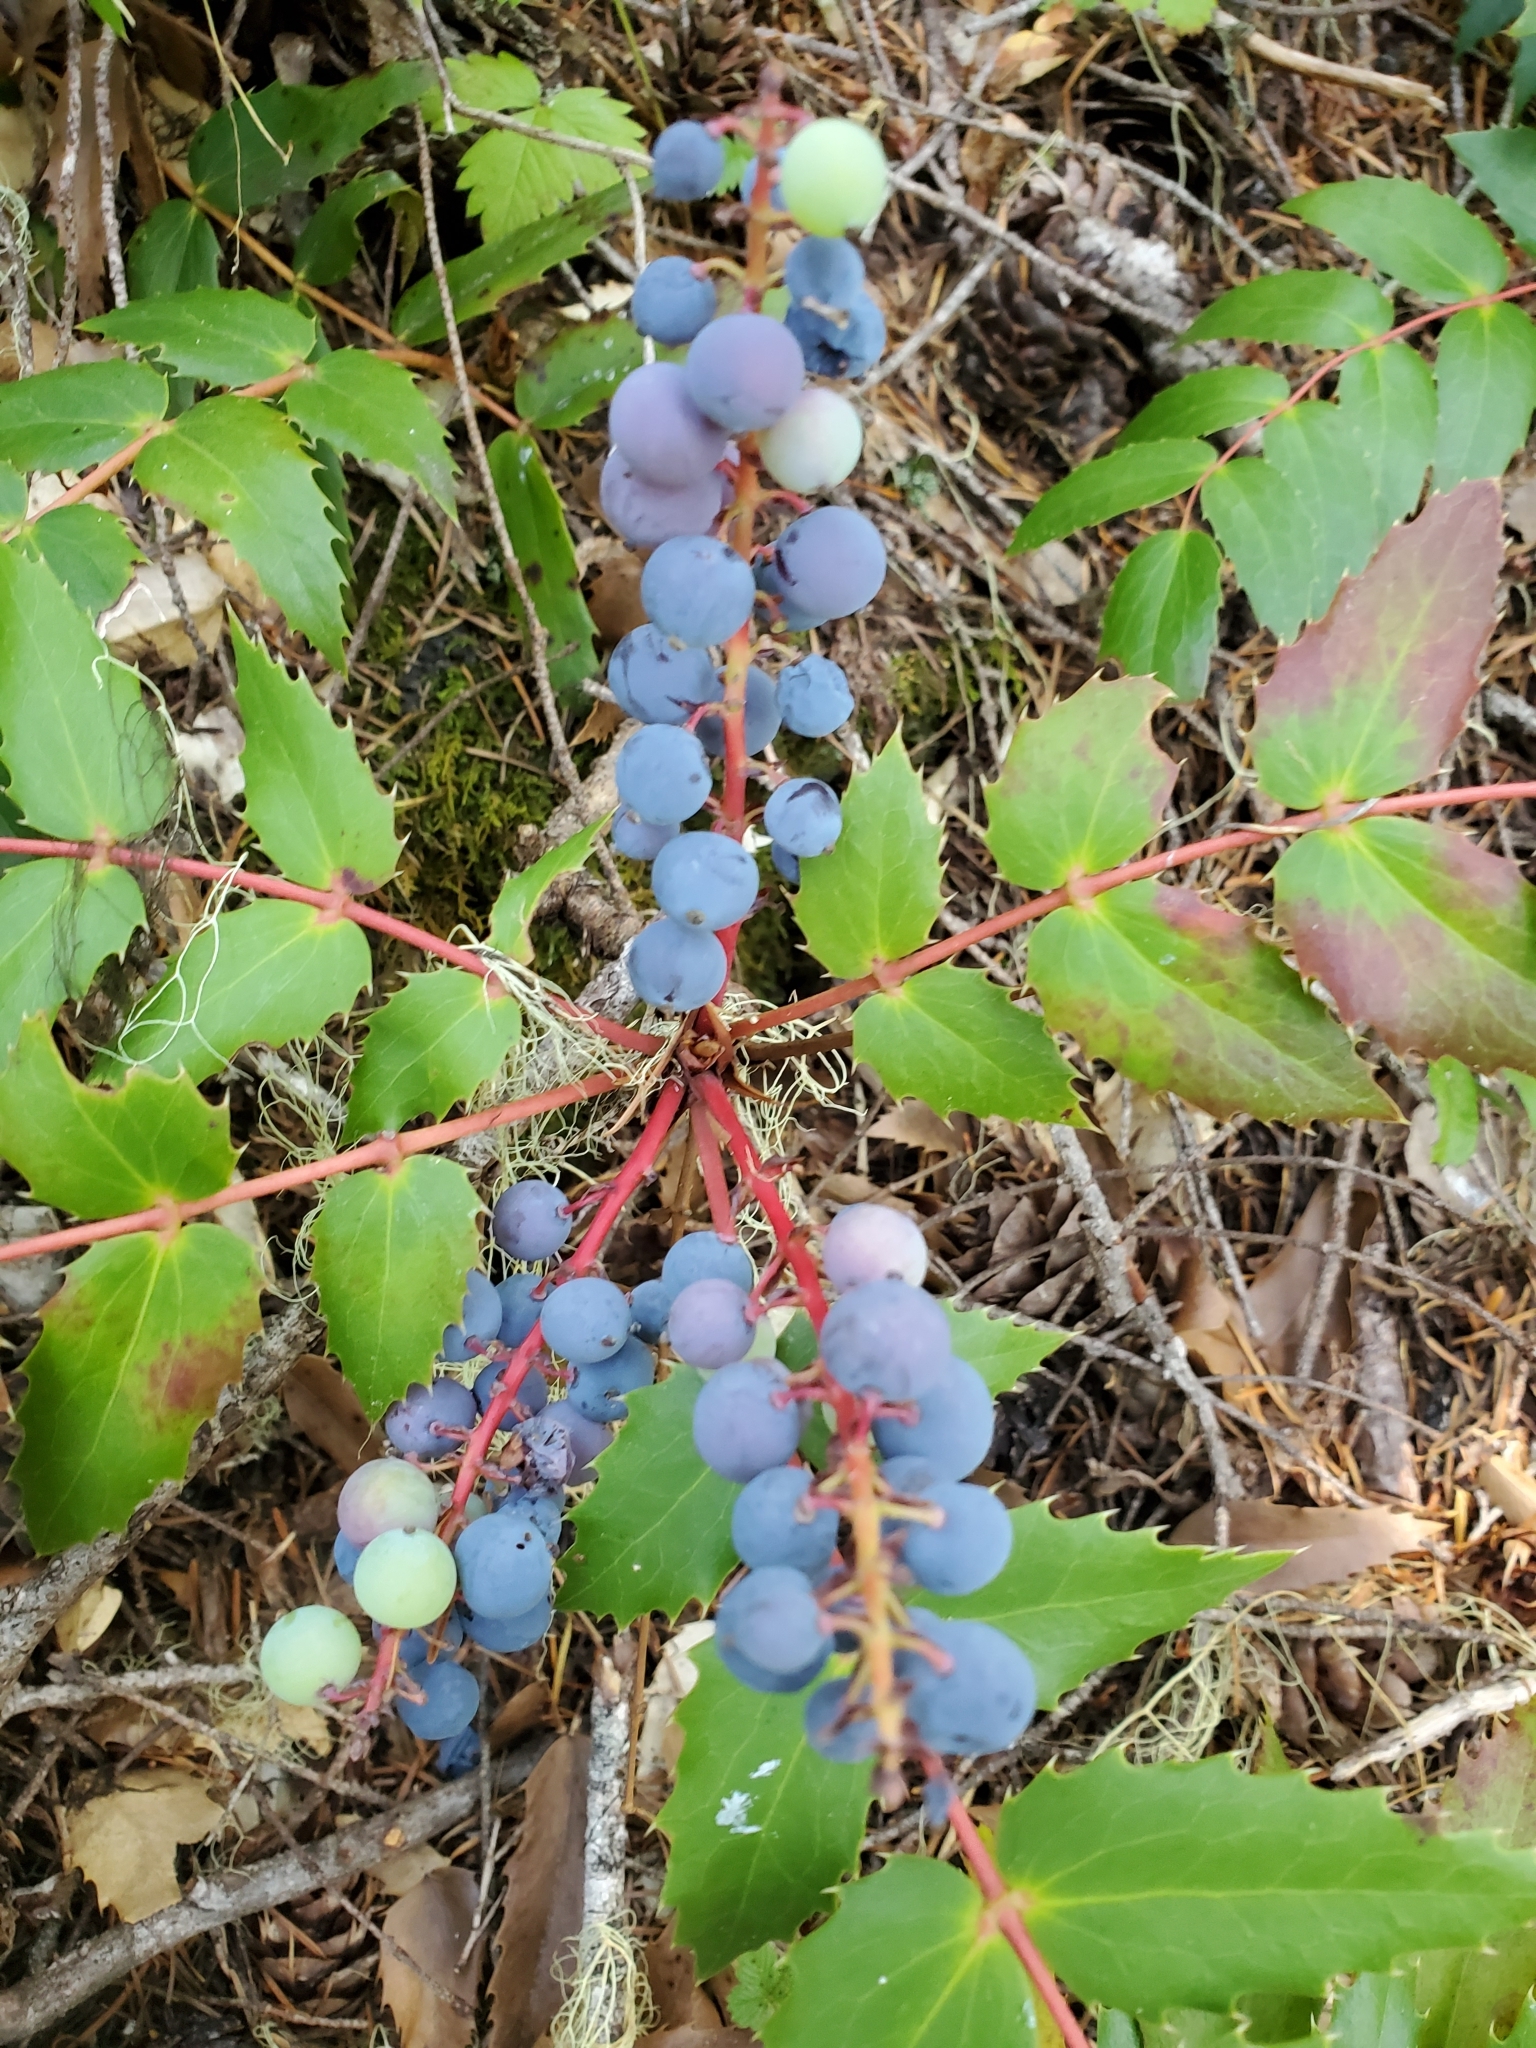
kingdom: Plantae
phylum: Tracheophyta
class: Magnoliopsida
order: Ranunculales
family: Berberidaceae
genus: Mahonia
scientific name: Mahonia nervosa
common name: Cascade oregon-grape
